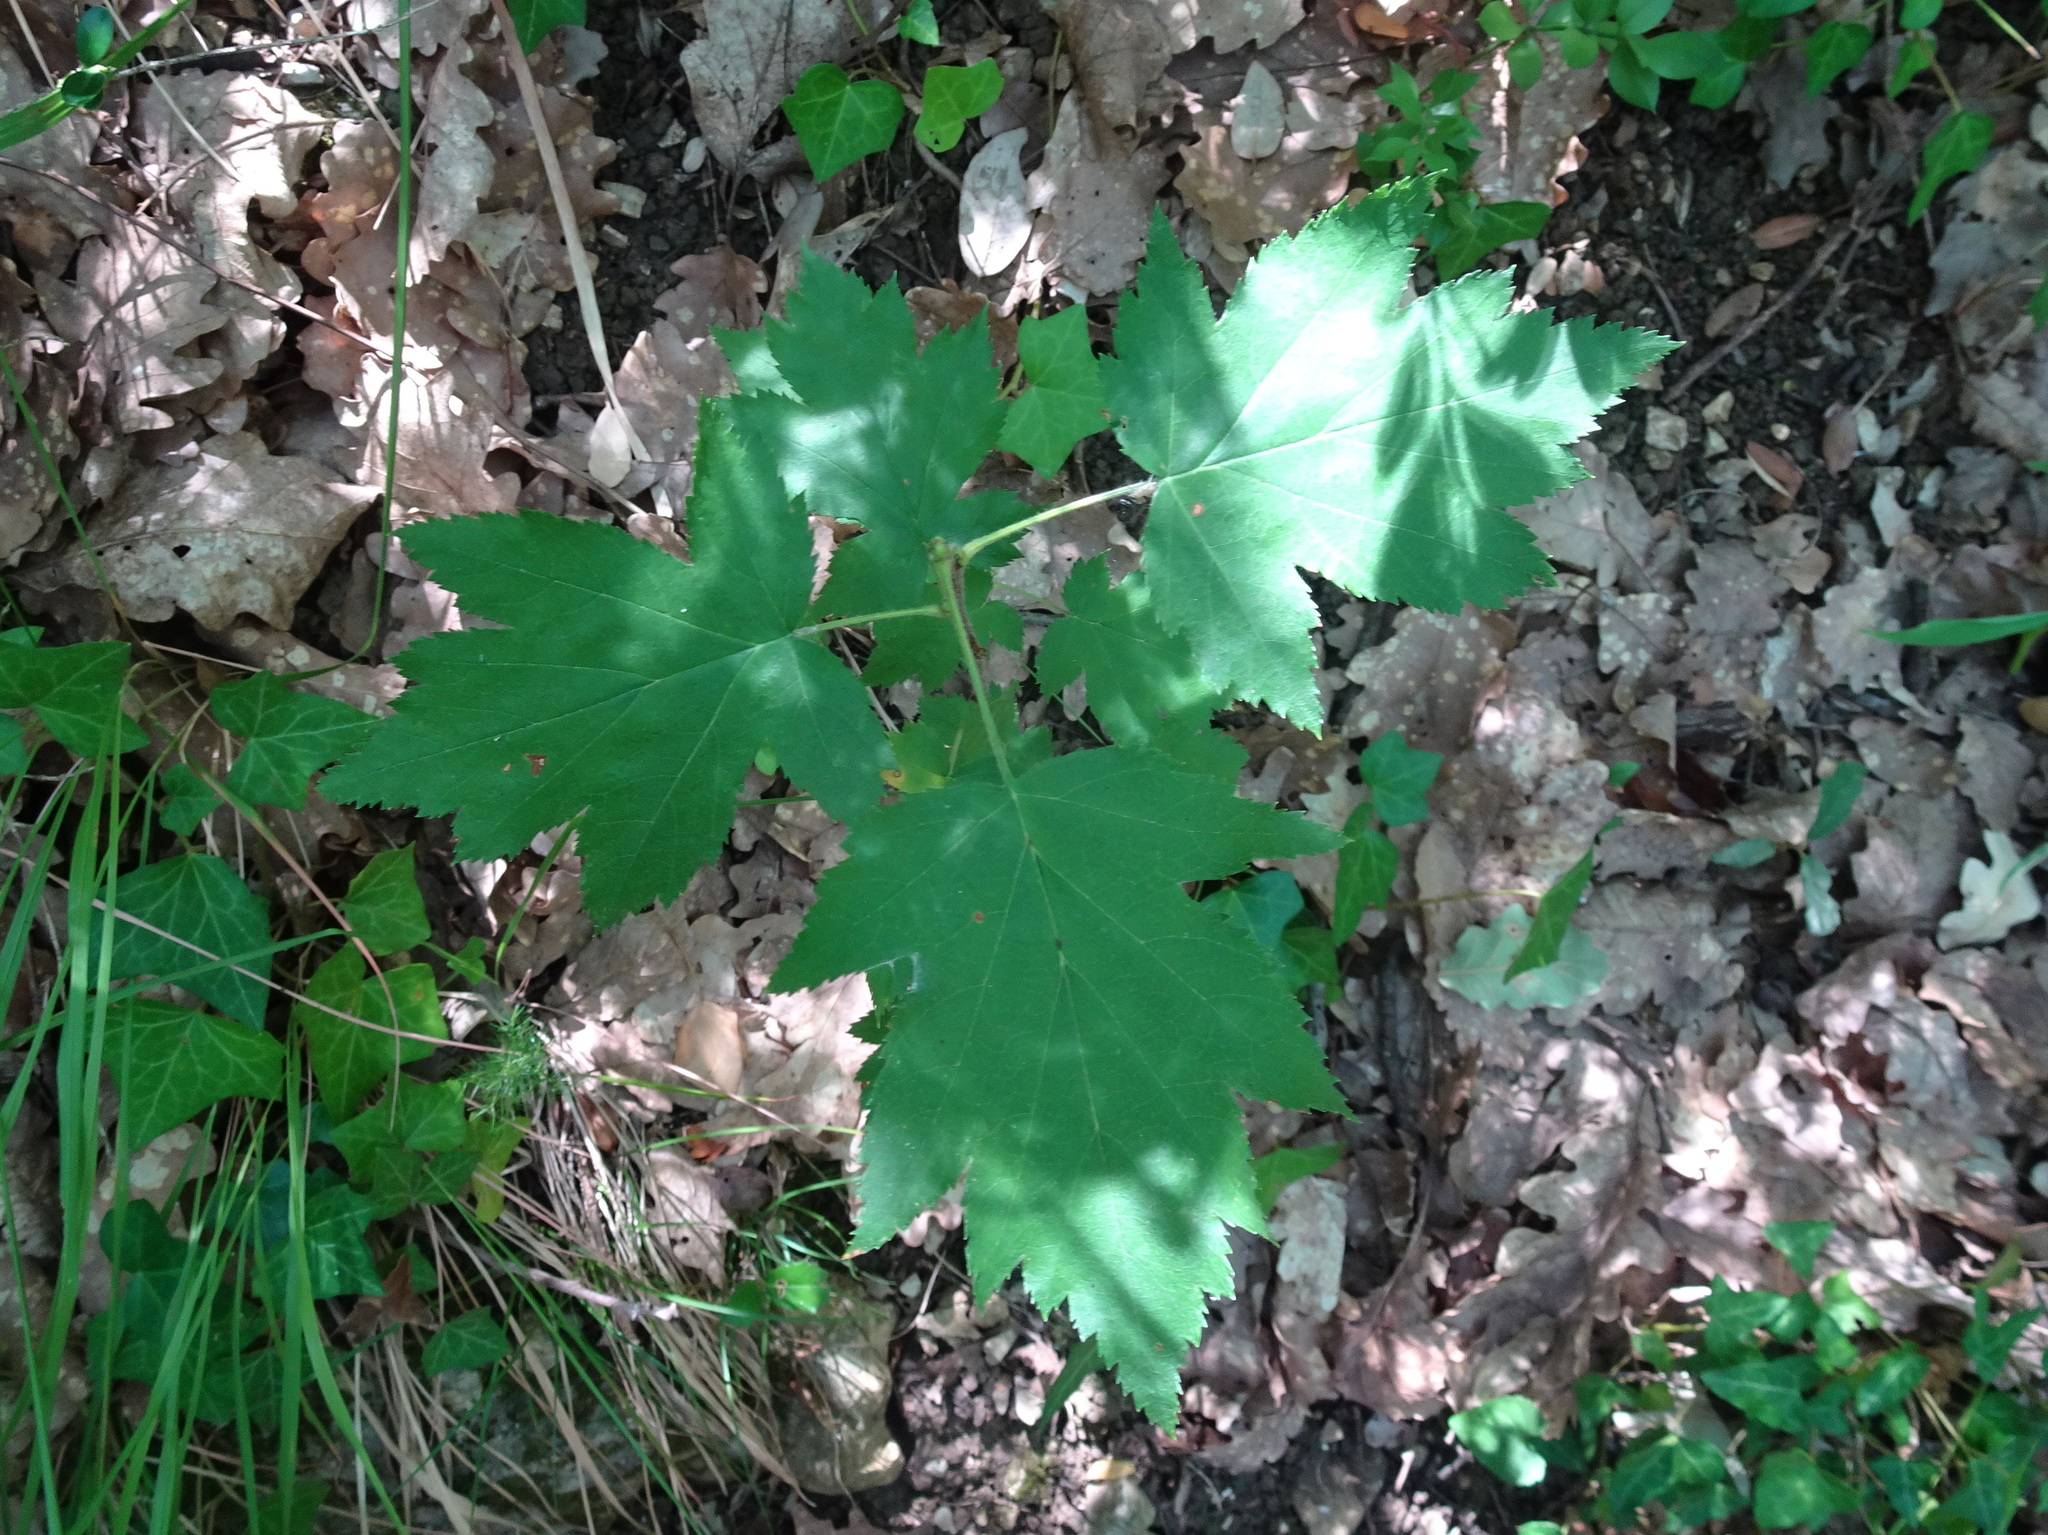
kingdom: Plantae
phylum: Tracheophyta
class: Magnoliopsida
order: Rosales
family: Rosaceae
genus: Torminalis
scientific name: Torminalis glaberrima
